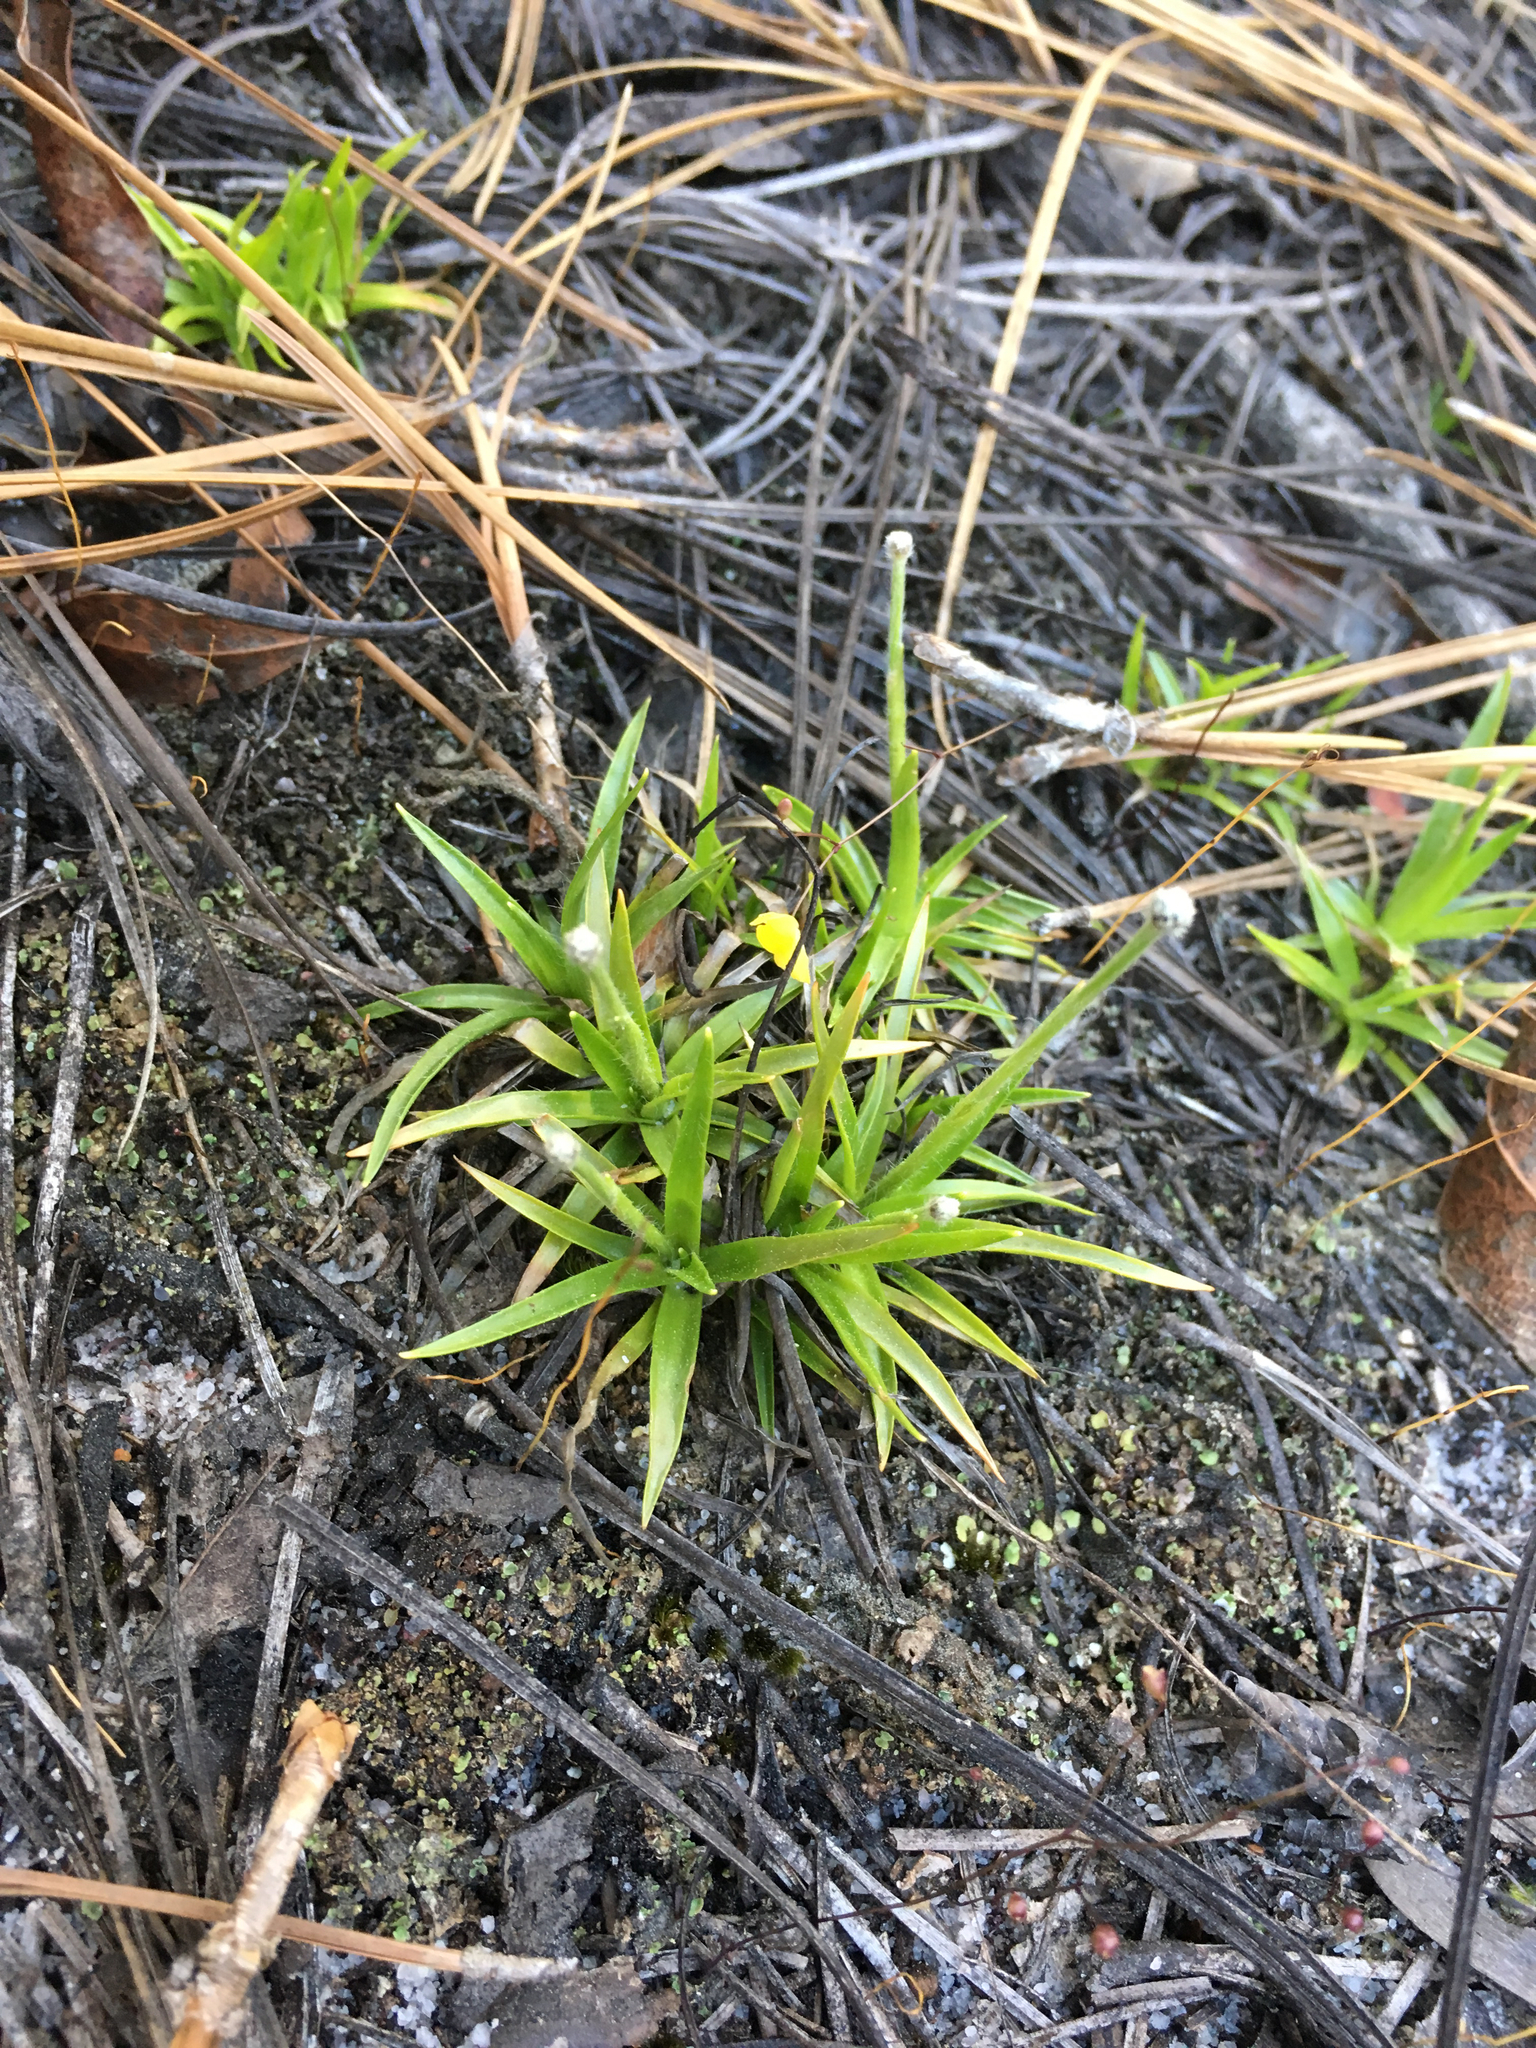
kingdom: Plantae
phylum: Tracheophyta
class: Liliopsida
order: Poales
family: Eriocaulaceae
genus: Paepalanthus
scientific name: Paepalanthus anceps
